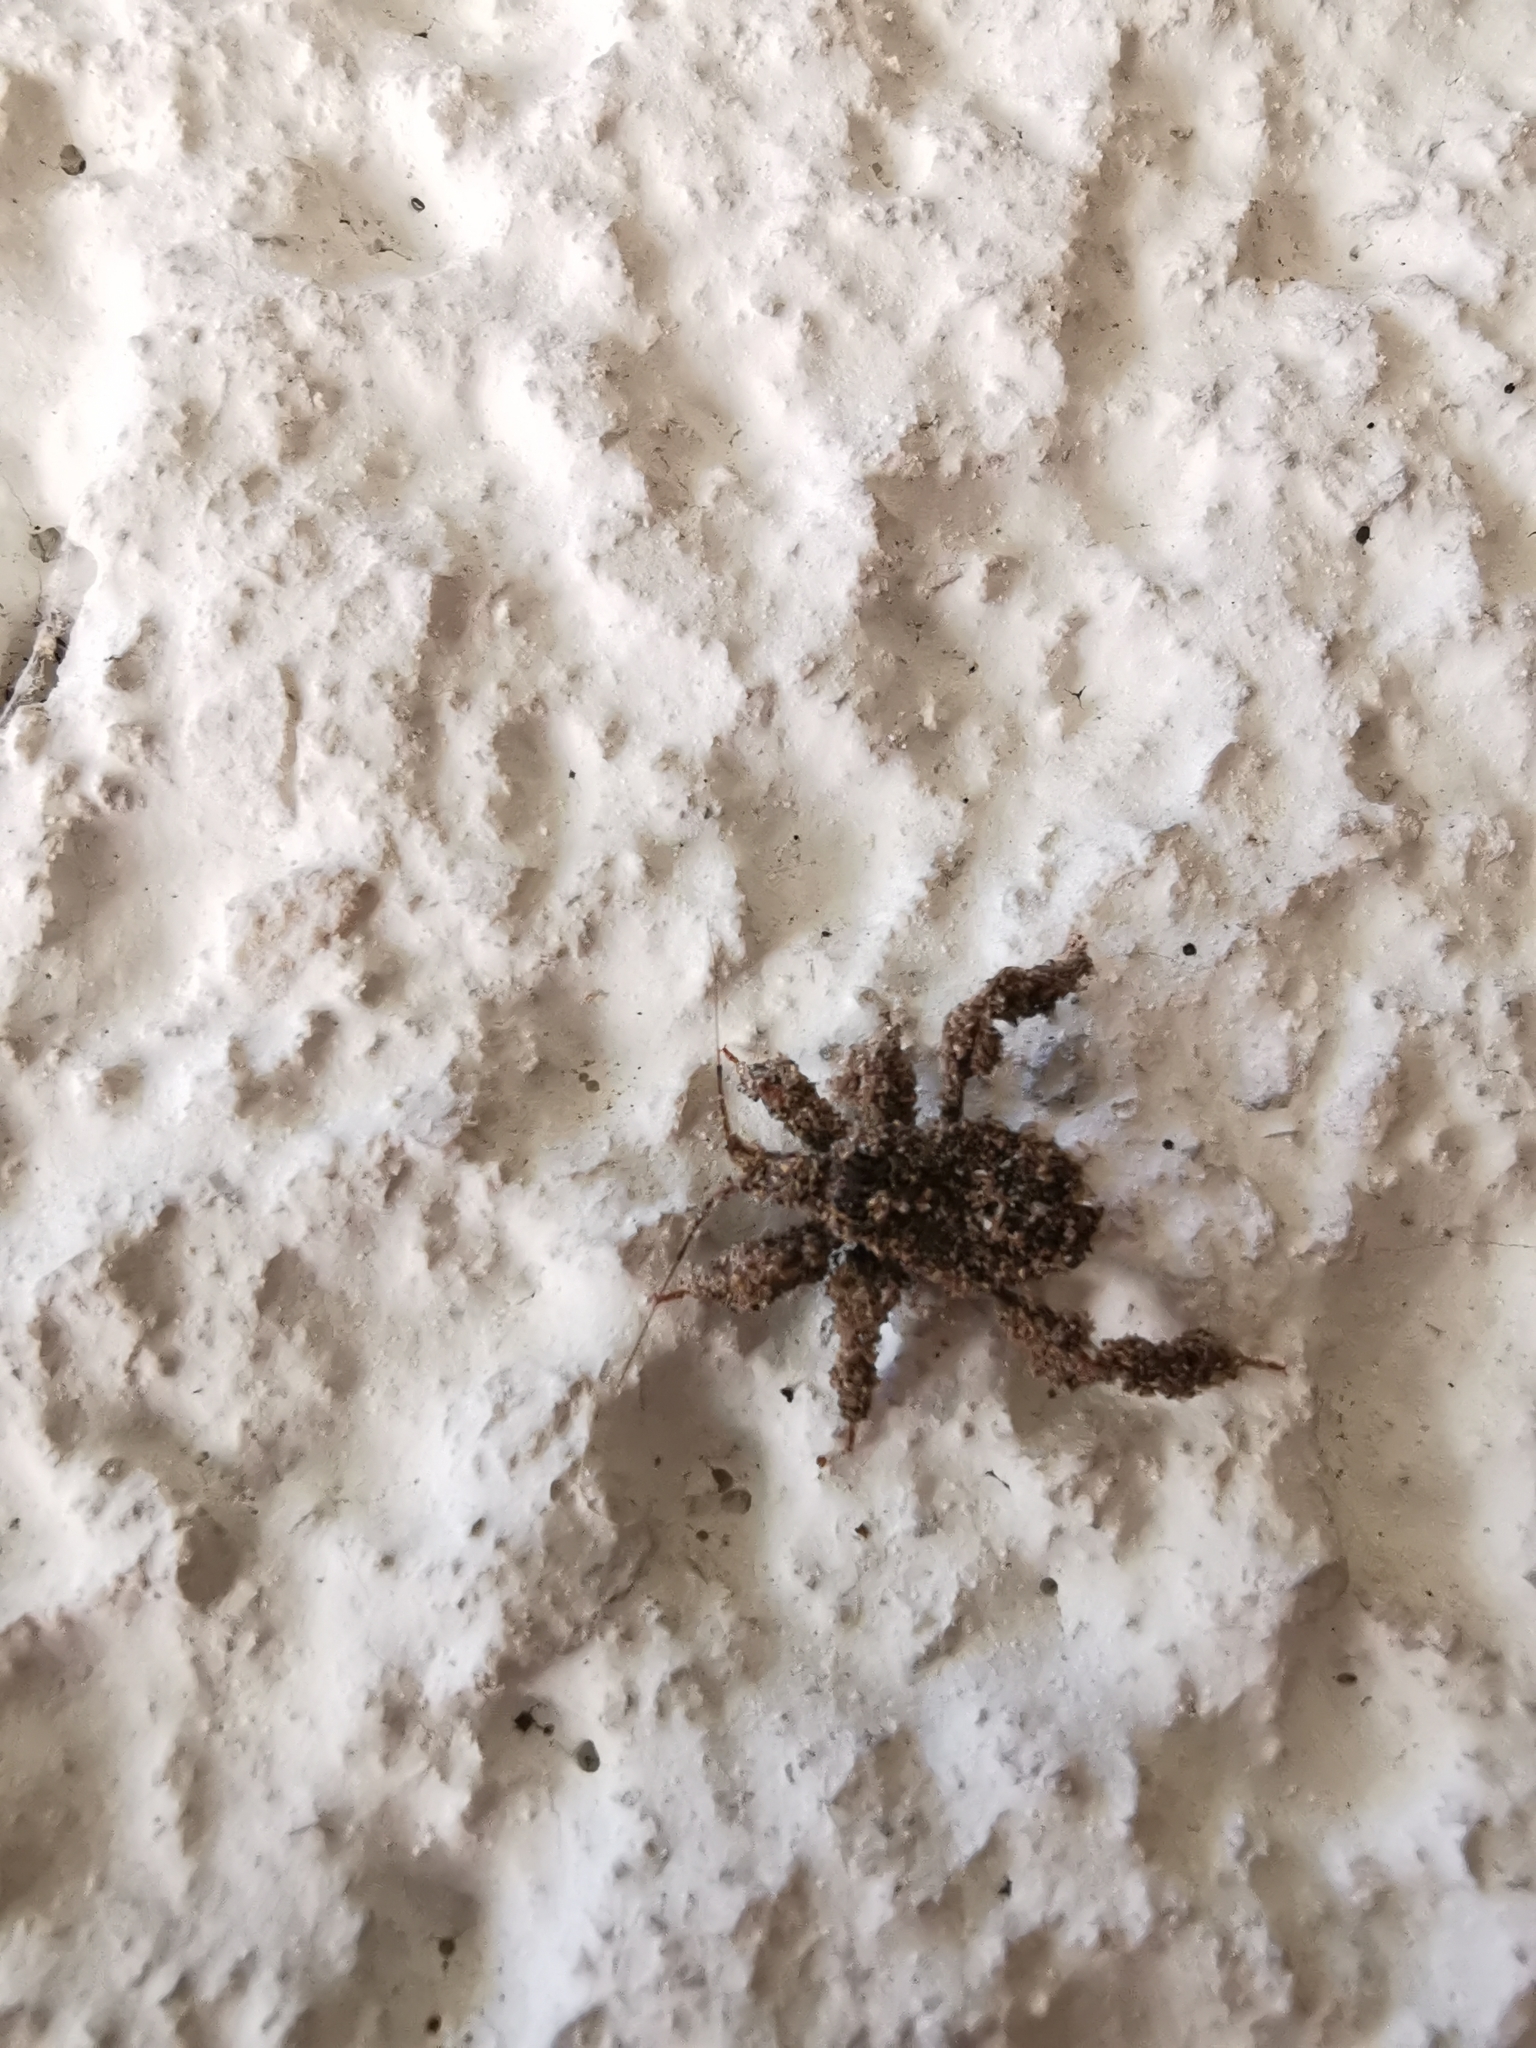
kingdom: Animalia
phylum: Arthropoda
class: Insecta
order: Hemiptera
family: Reduviidae
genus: Reduvius
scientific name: Reduvius personatus
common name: Masked hunter
